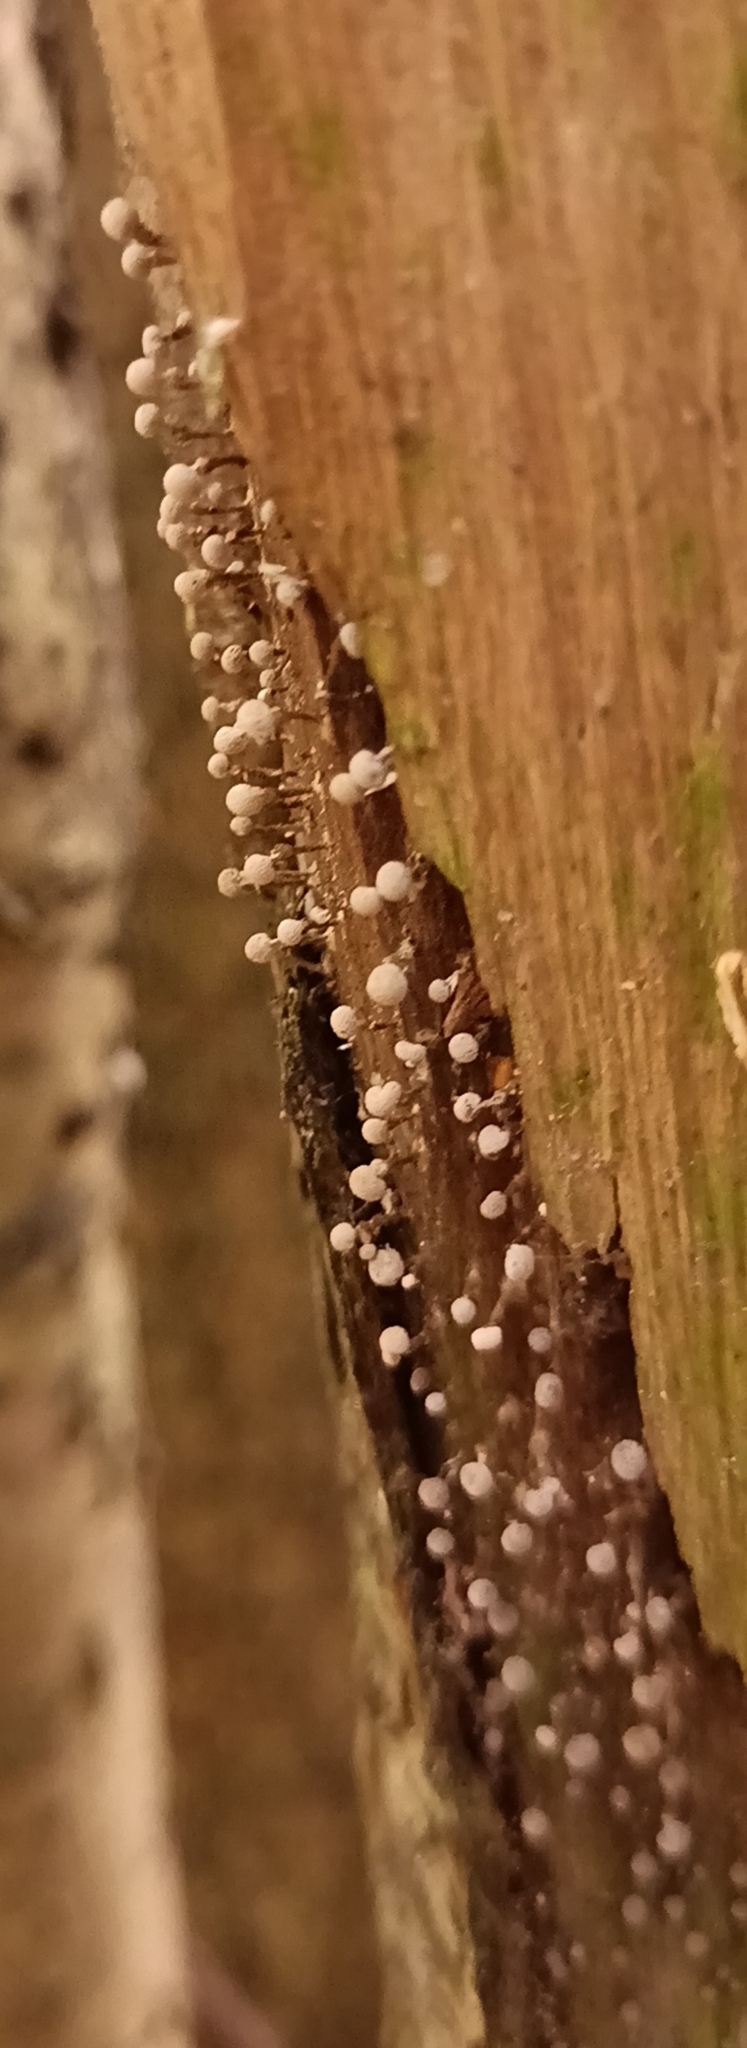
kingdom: Fungi
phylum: Basidiomycota
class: Atractiellomycetes
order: Atractiellales
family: Phleogenaceae
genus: Phleogena
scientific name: Phleogena faginea
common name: Fenugreek stalkball
